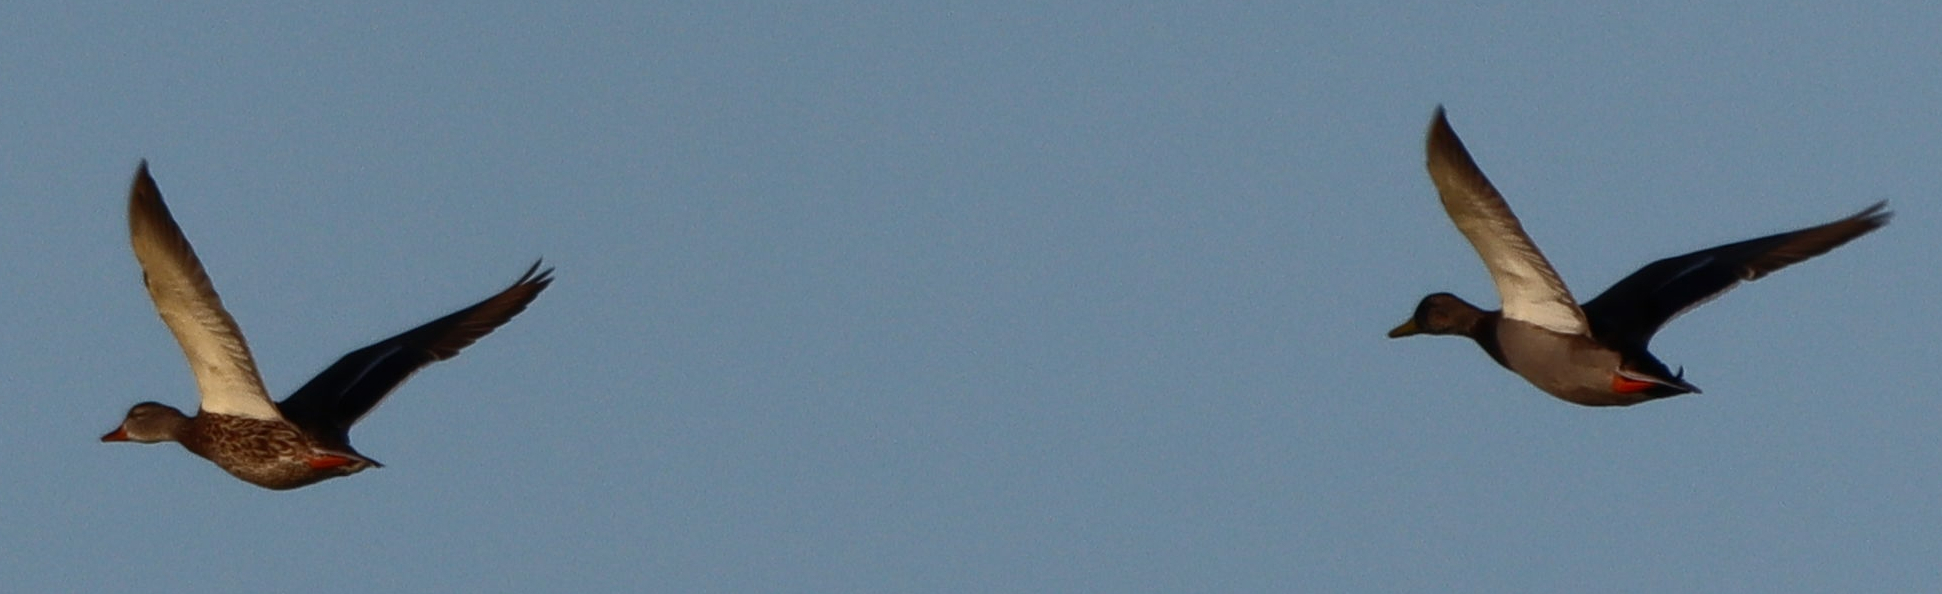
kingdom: Animalia
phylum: Chordata
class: Aves
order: Anseriformes
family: Anatidae
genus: Anas
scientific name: Anas platyrhynchos
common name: Mallard
